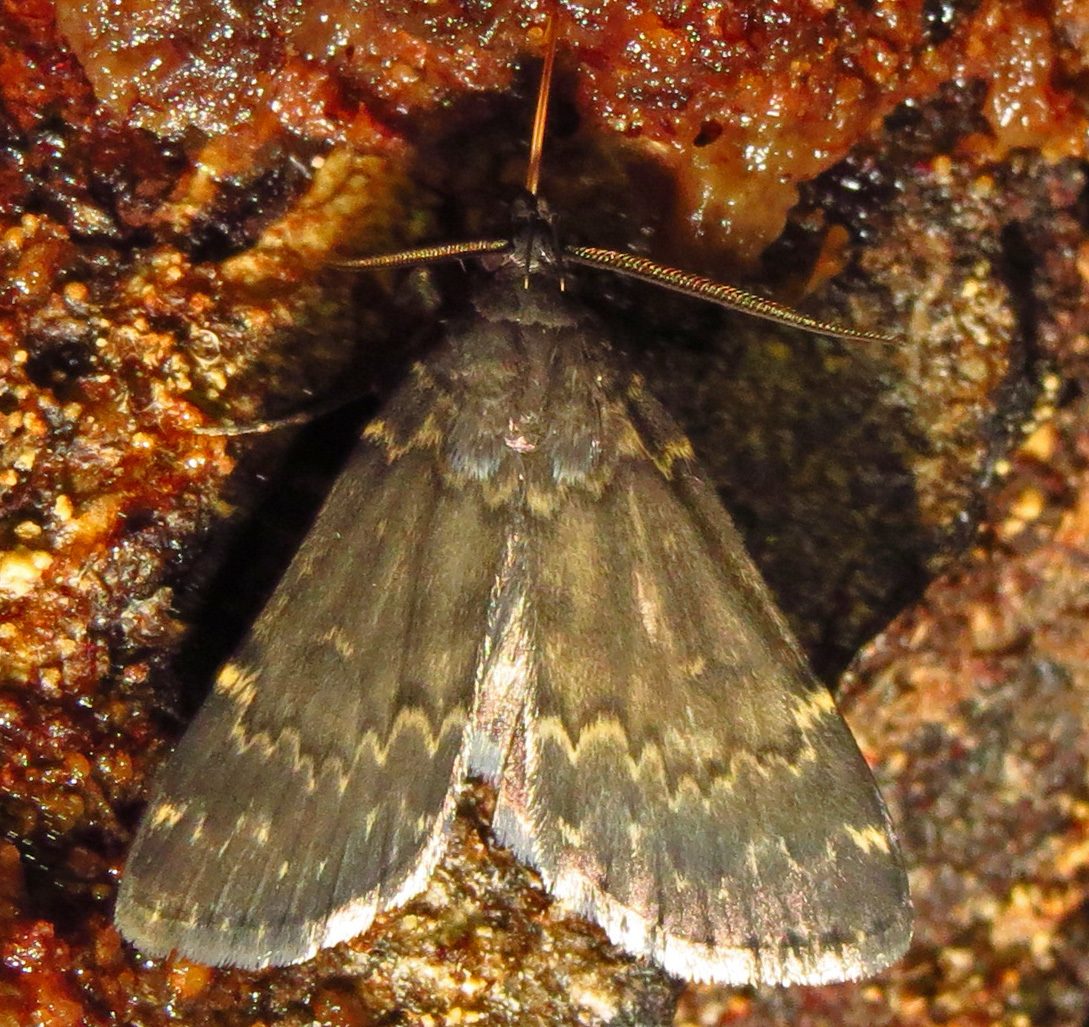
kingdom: Animalia
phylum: Arthropoda
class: Insecta
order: Lepidoptera
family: Erebidae
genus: Idia
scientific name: Idia lubricalis
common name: Twin-striped tabby
